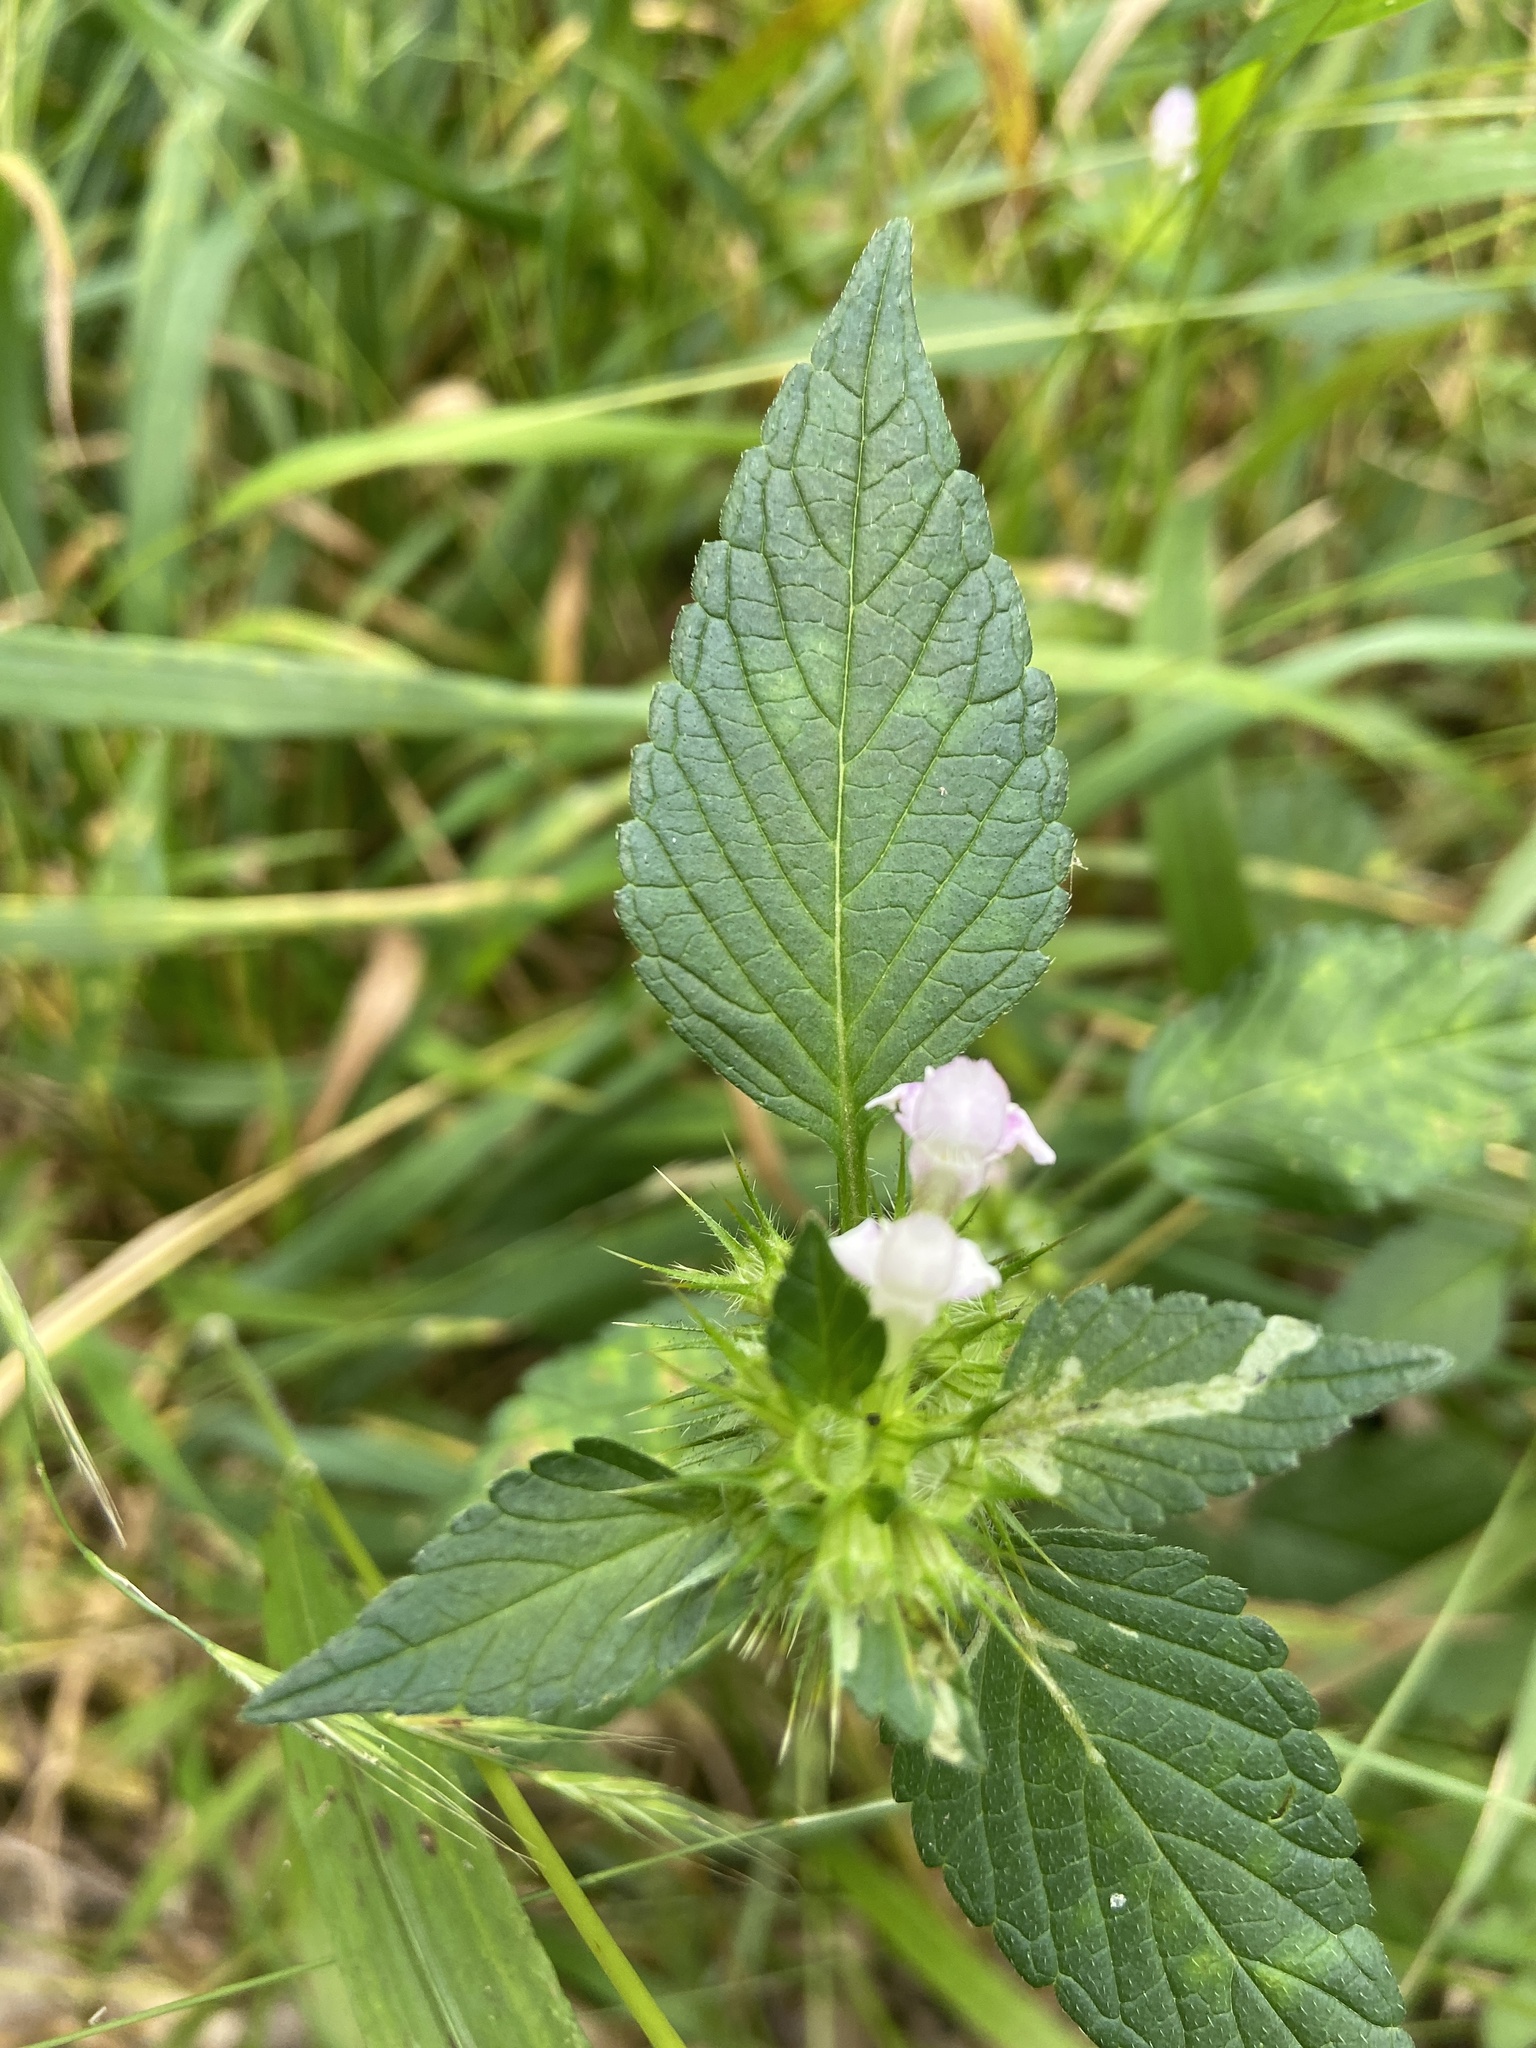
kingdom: Animalia
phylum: Arthropoda
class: Insecta
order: Diptera
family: Agromyzidae
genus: Liriomyza
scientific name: Liriomyza bryoniae
